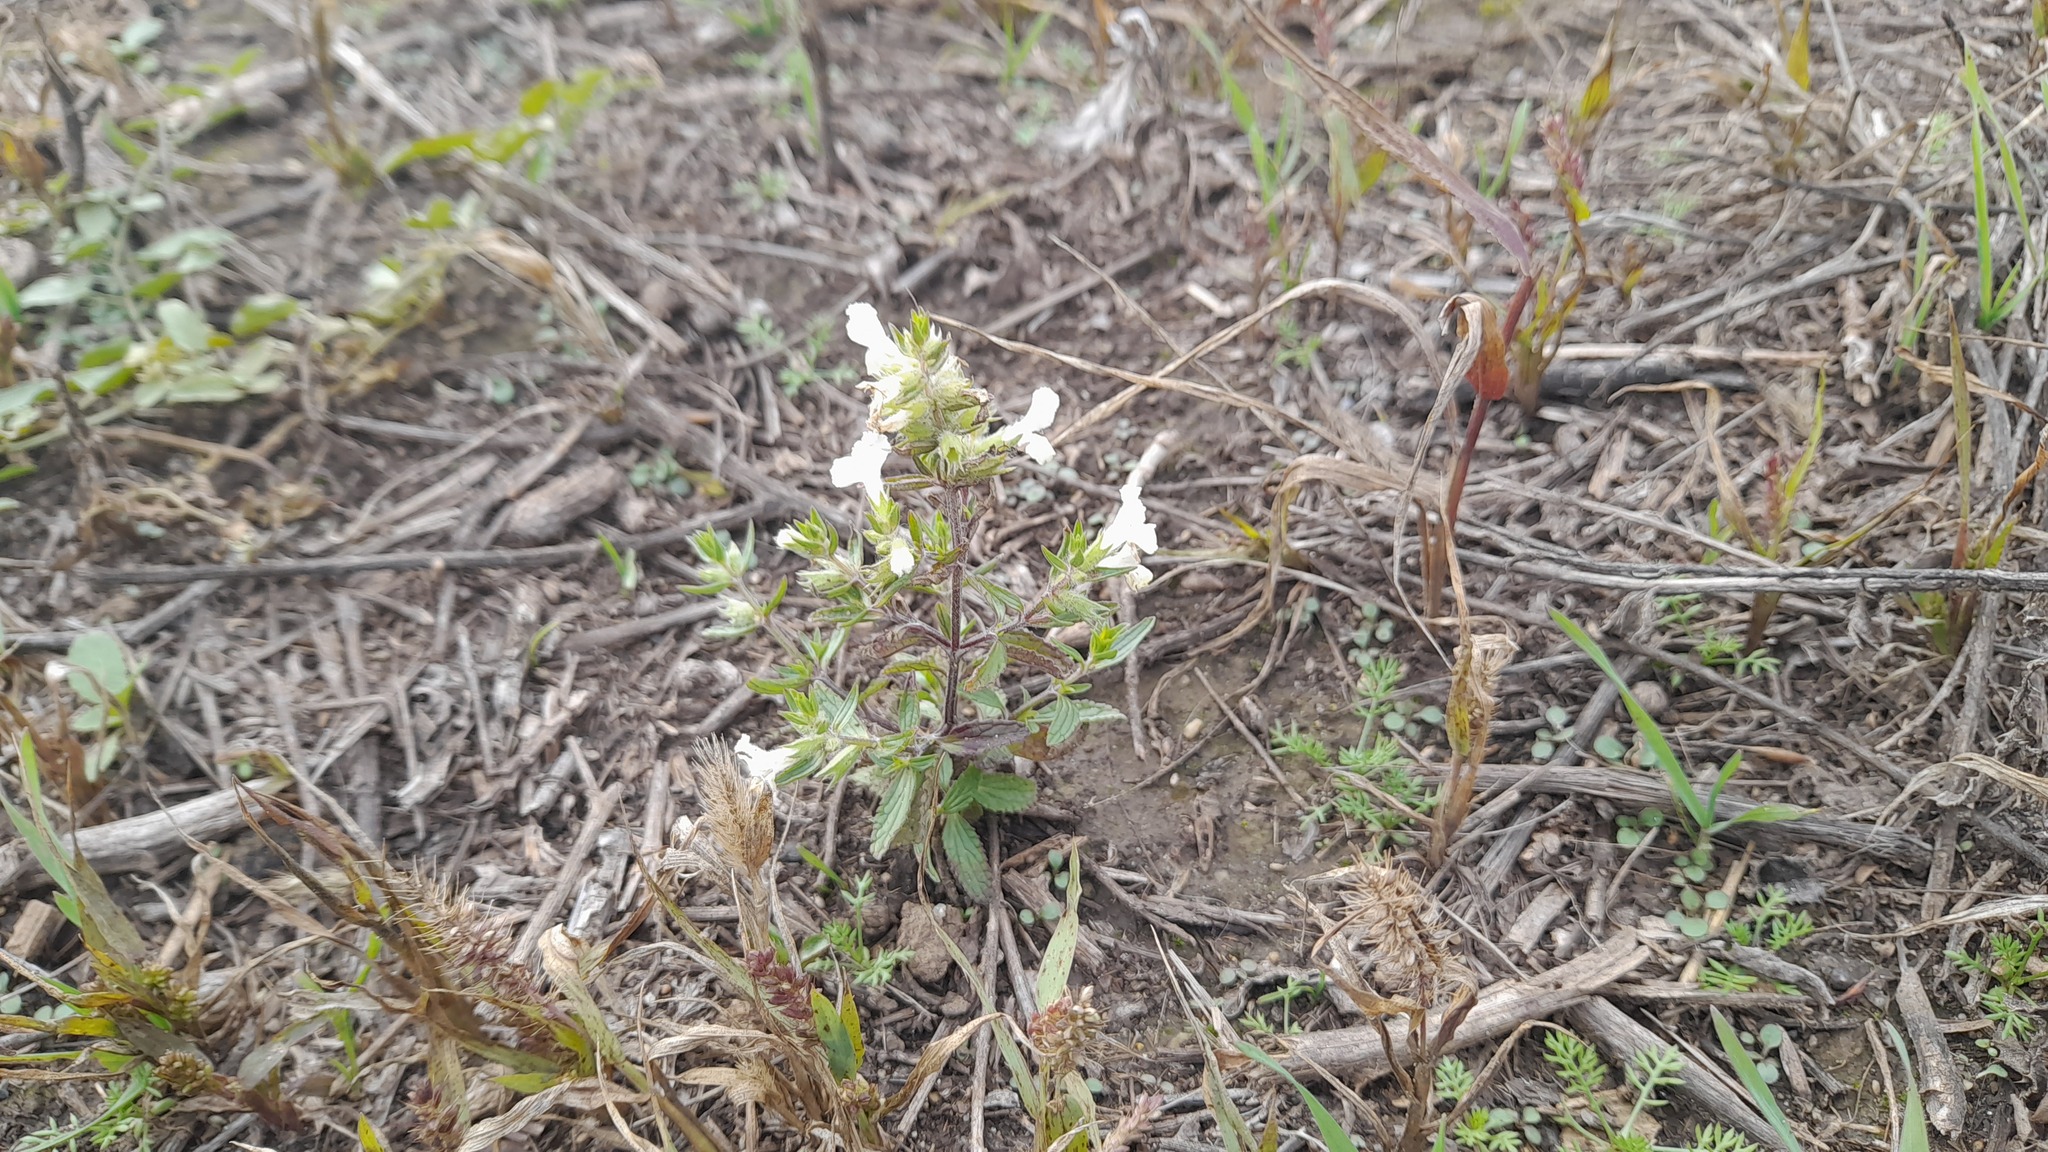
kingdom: Plantae
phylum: Tracheophyta
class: Magnoliopsida
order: Lamiales
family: Lamiaceae
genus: Stachys
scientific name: Stachys annua
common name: Annual yellow-woundwort
